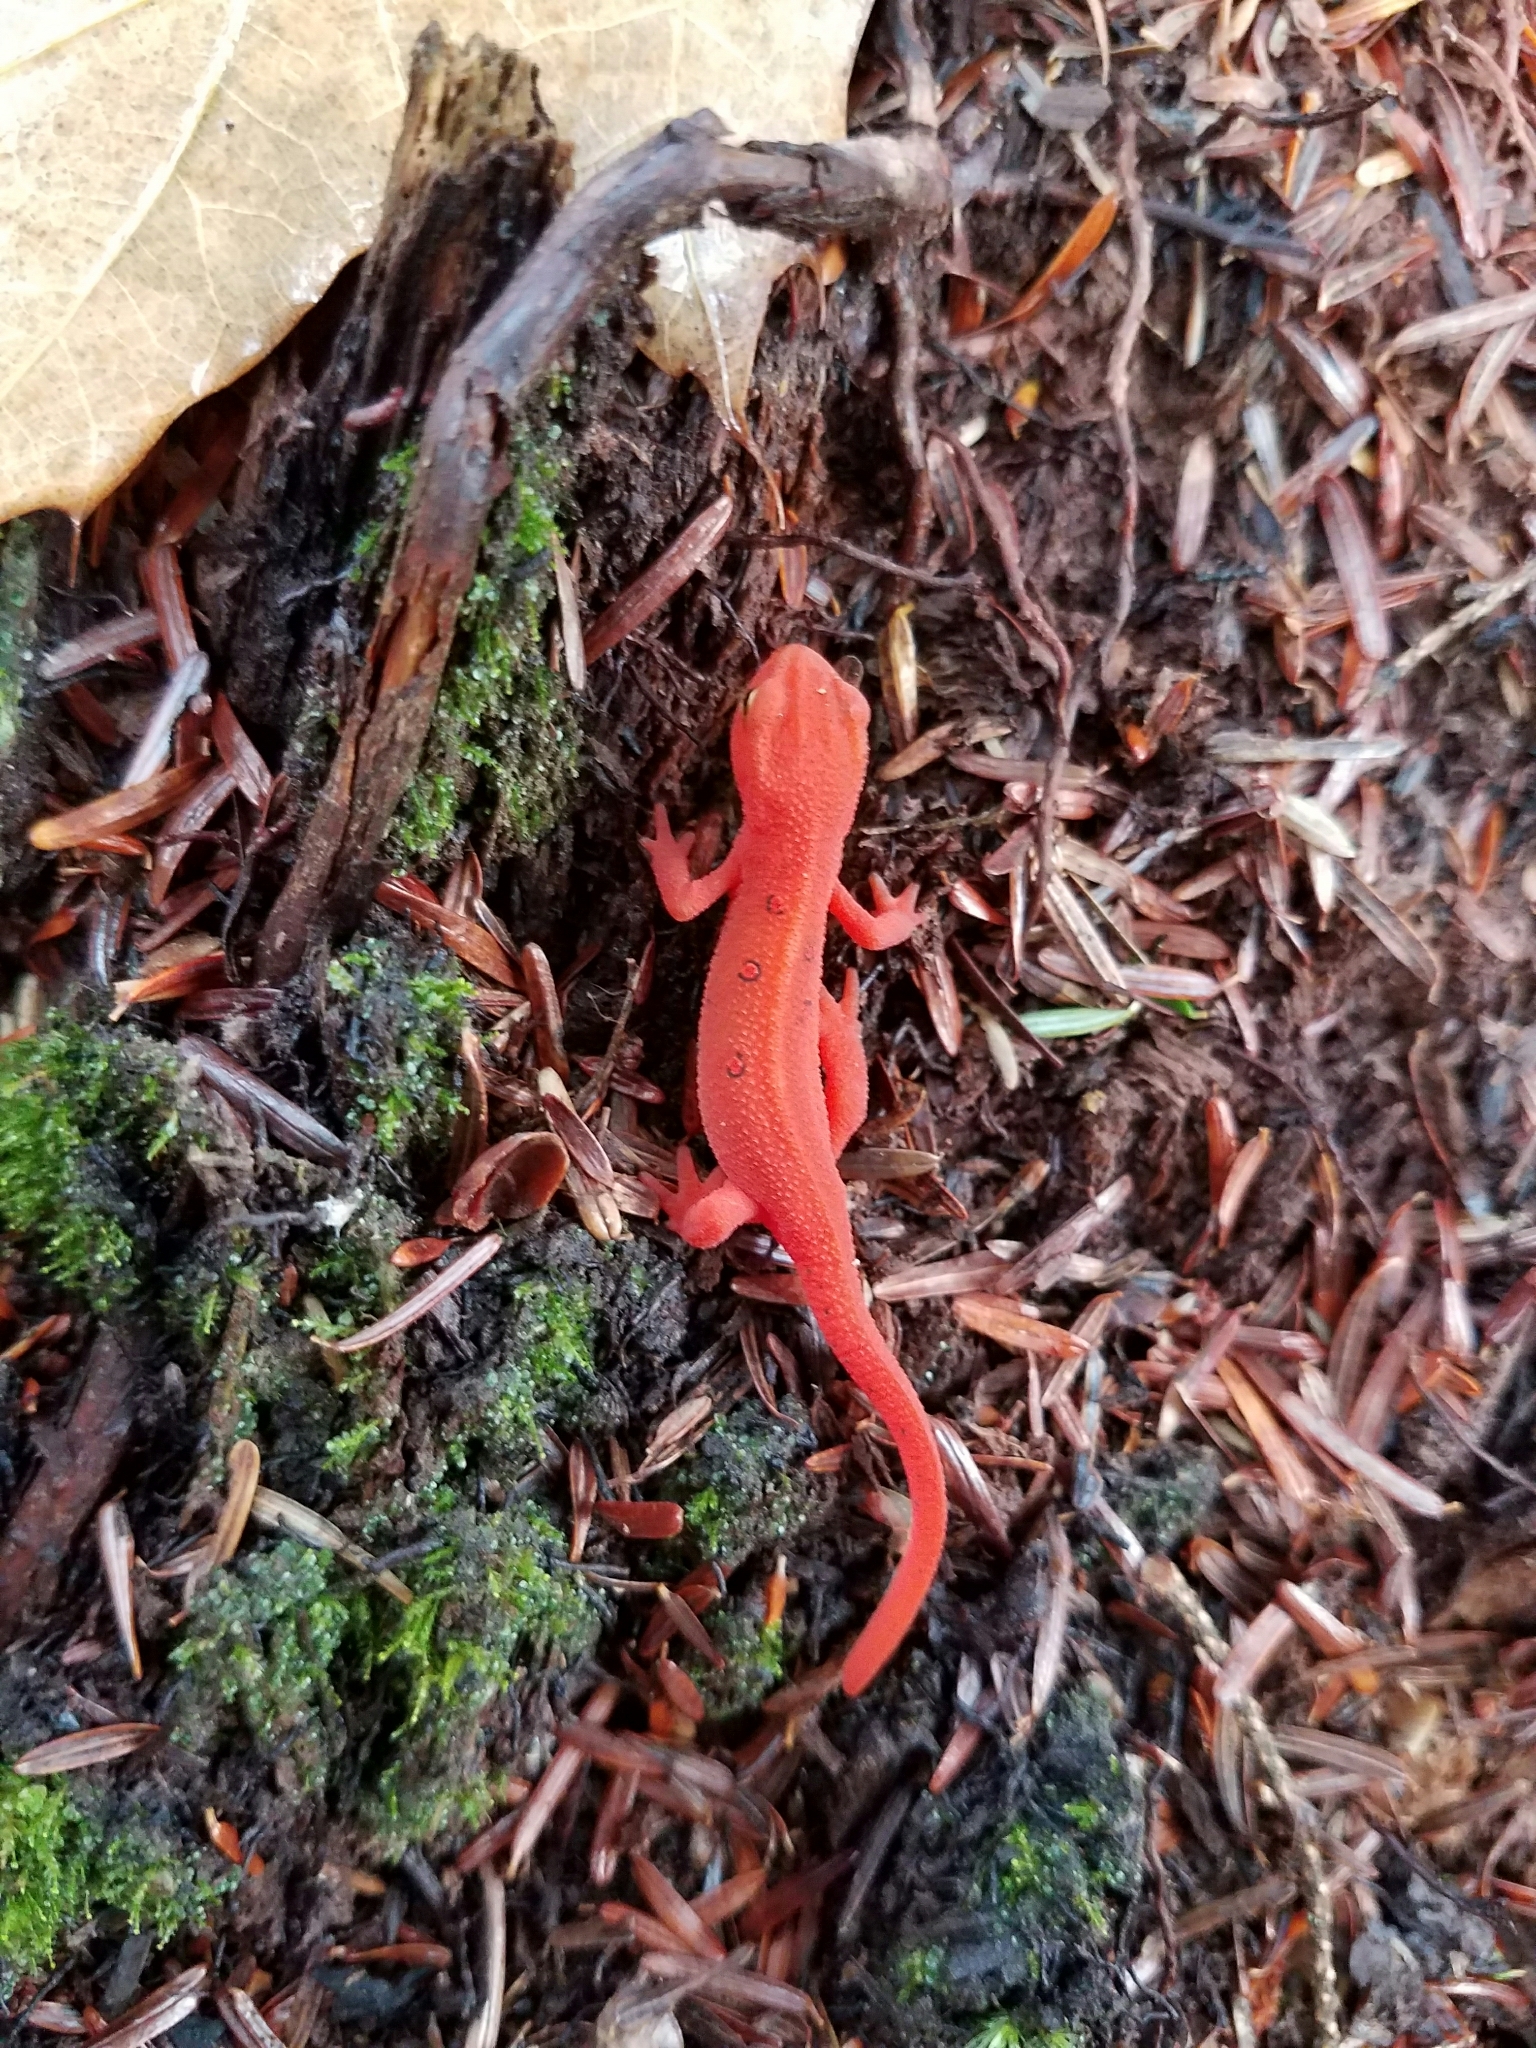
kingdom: Animalia
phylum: Chordata
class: Amphibia
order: Caudata
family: Salamandridae
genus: Notophthalmus
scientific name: Notophthalmus viridescens
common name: Eastern newt
